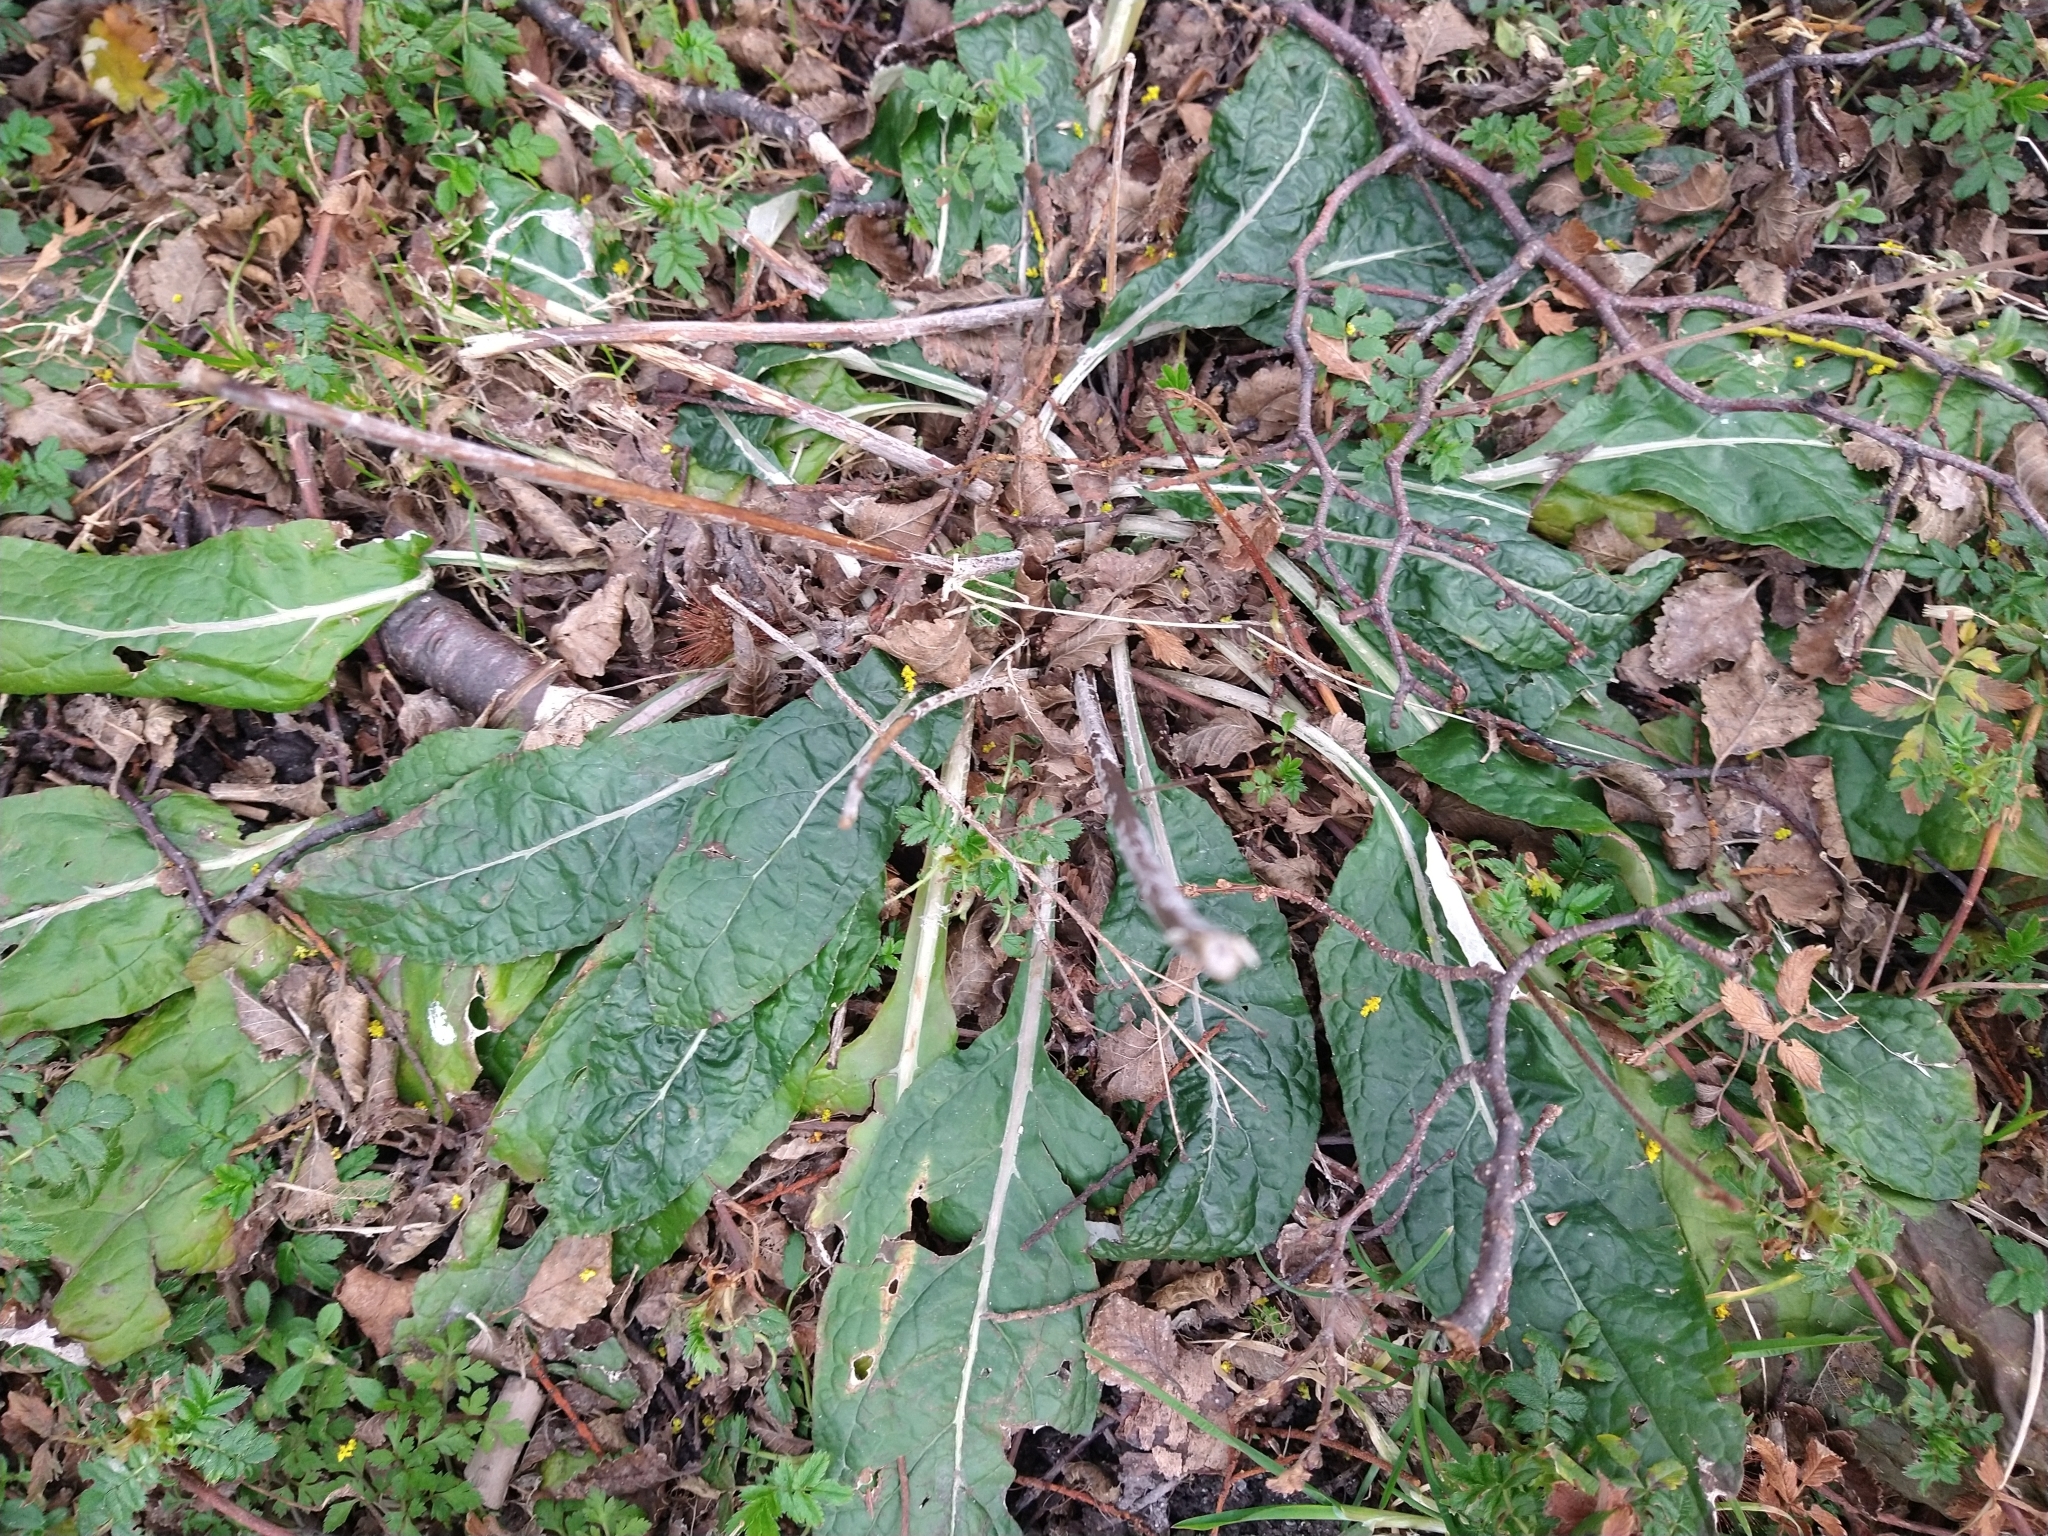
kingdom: Plantae
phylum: Tracheophyta
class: Magnoliopsida
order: Asterales
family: Asteraceae
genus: Adenocaulon
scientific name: Adenocaulon chilense
